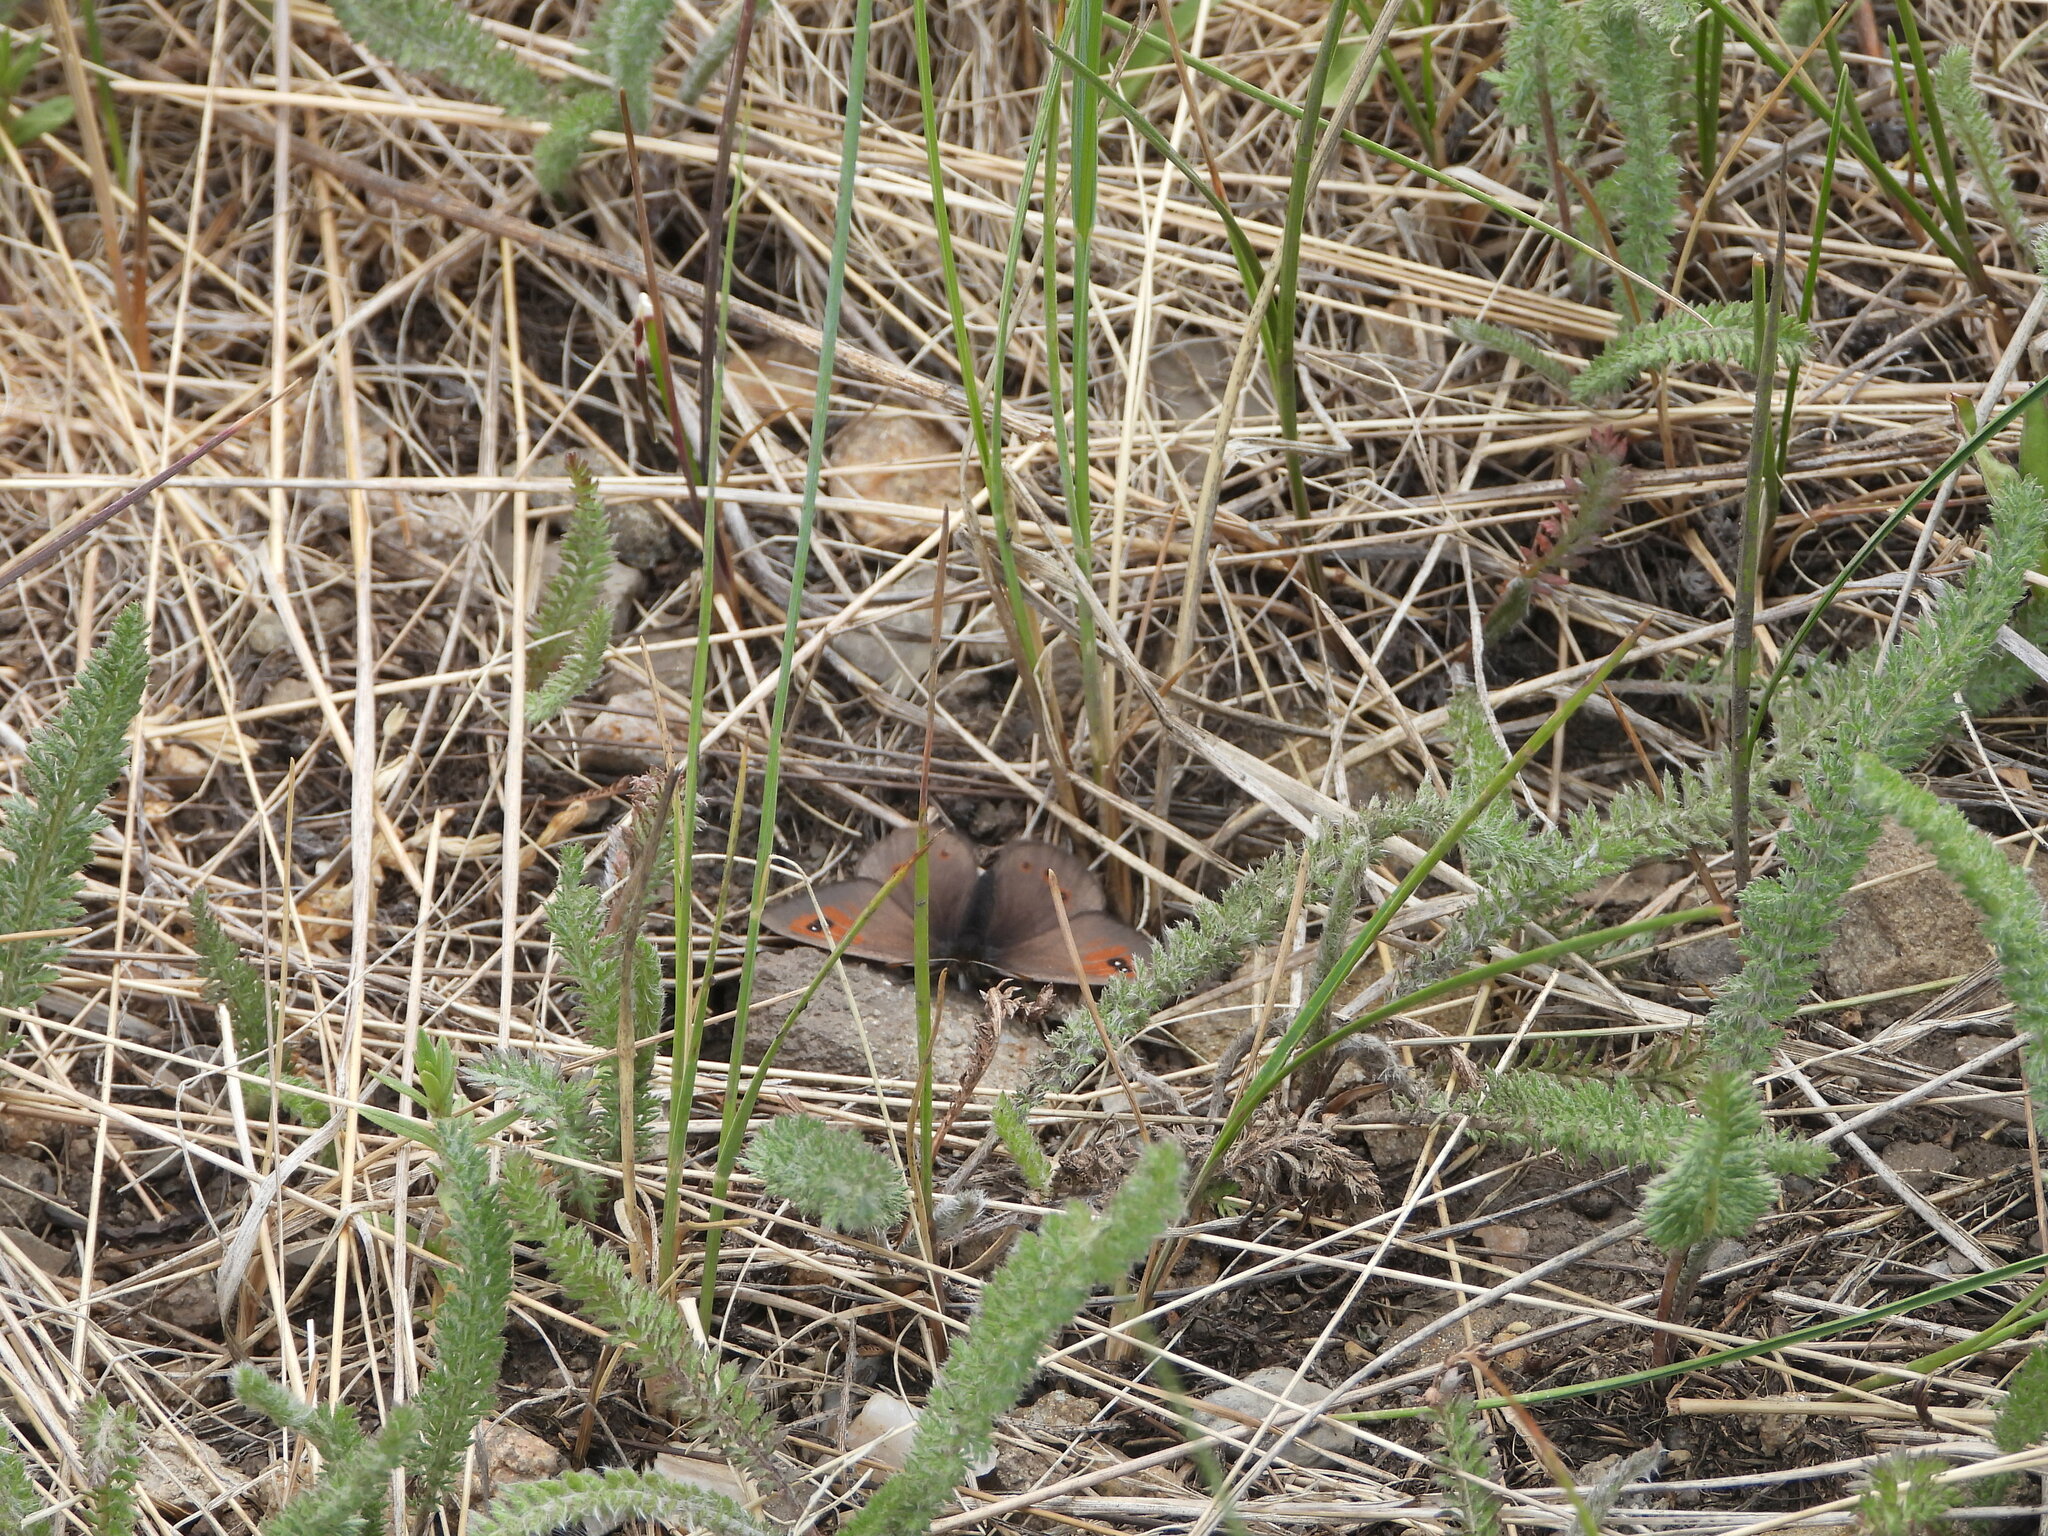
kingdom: Animalia
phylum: Arthropoda
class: Insecta
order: Lepidoptera
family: Nymphalidae
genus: Erebia
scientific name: Erebia tyndarus
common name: Swiss brassy ringlet
